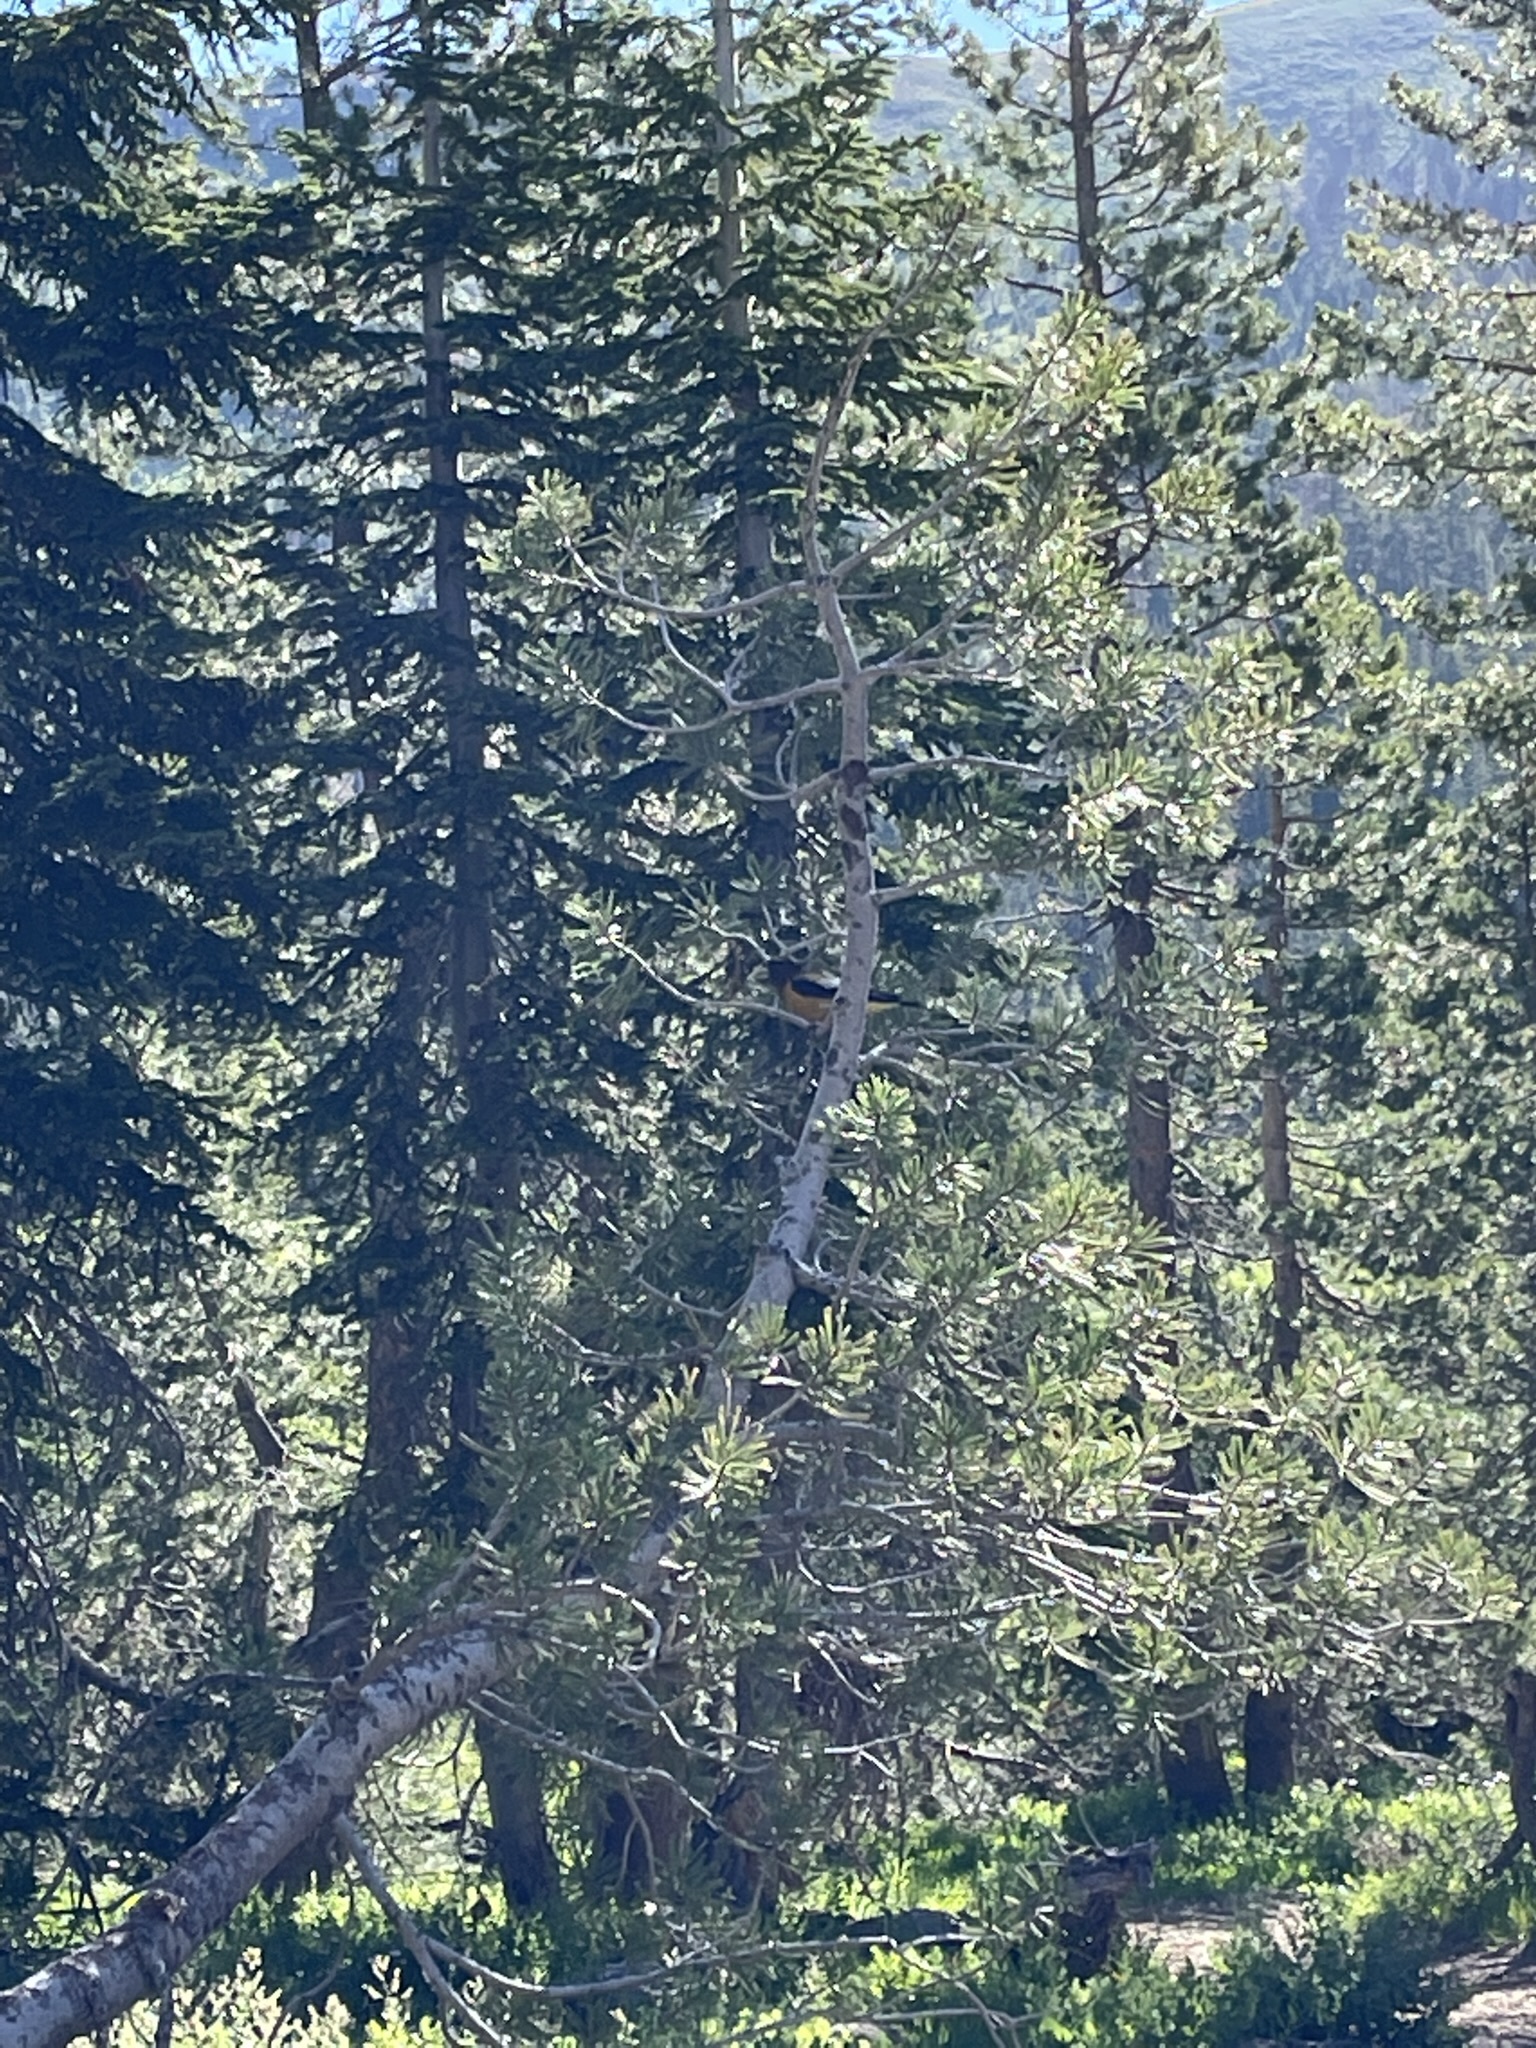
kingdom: Animalia
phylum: Chordata
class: Aves
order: Passeriformes
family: Fringillidae
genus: Hesperiphona
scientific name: Hesperiphona vespertina
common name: Evening grosbeak
